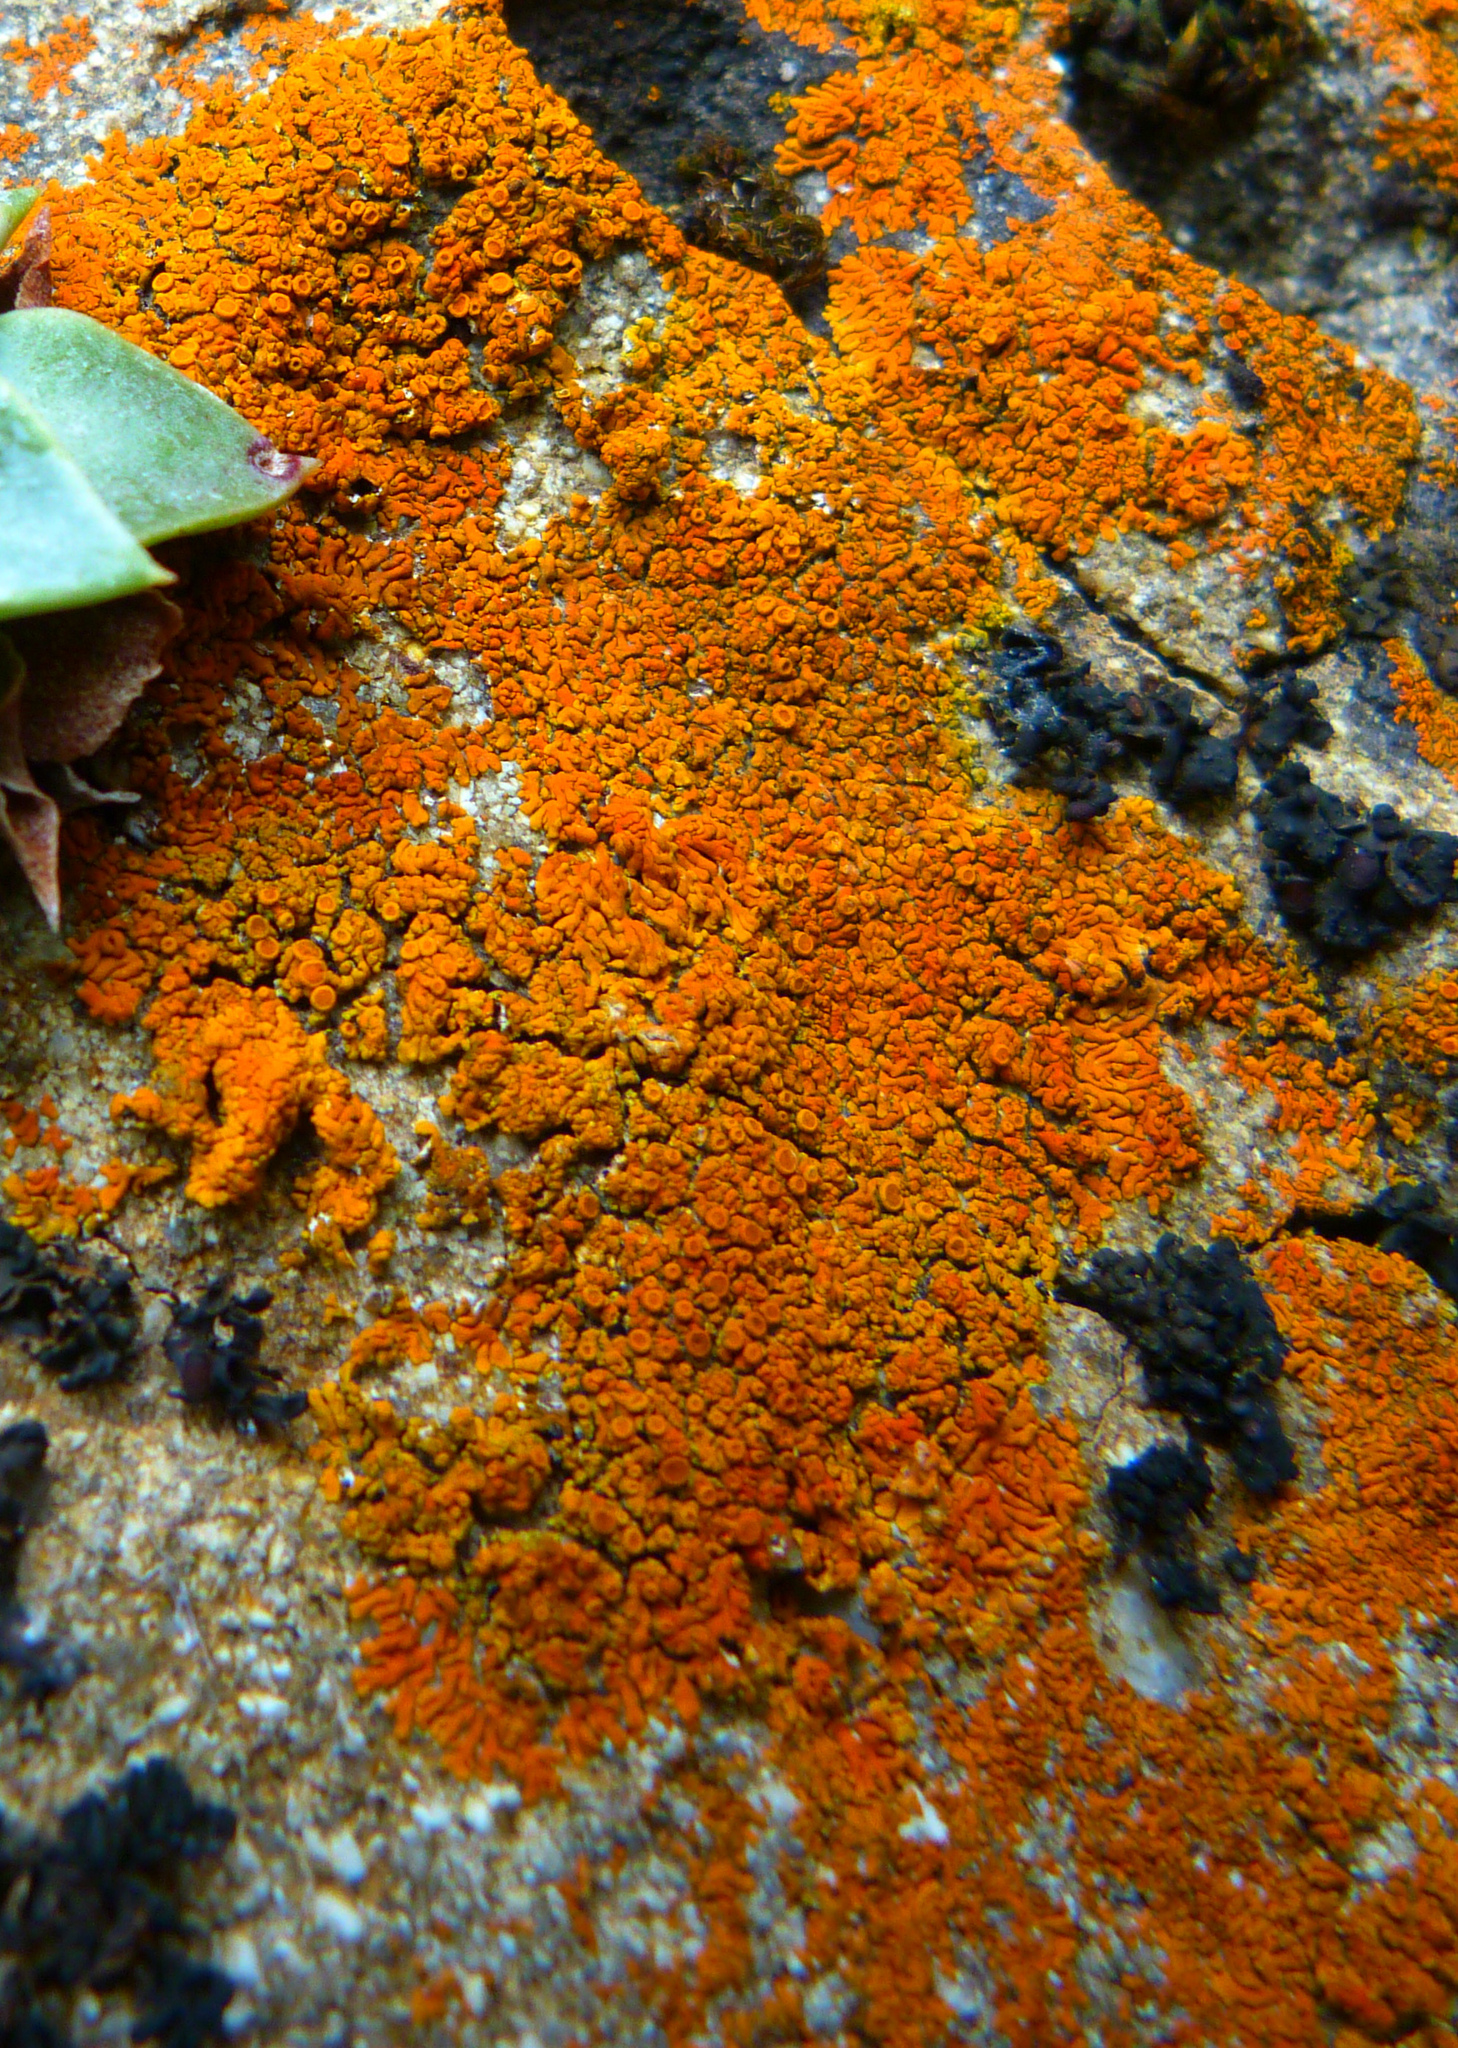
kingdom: Fungi
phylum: Ascomycota
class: Lecanoromycetes
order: Teloschistales
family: Teloschistaceae
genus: Igneoplaca
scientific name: Igneoplaca ignea
